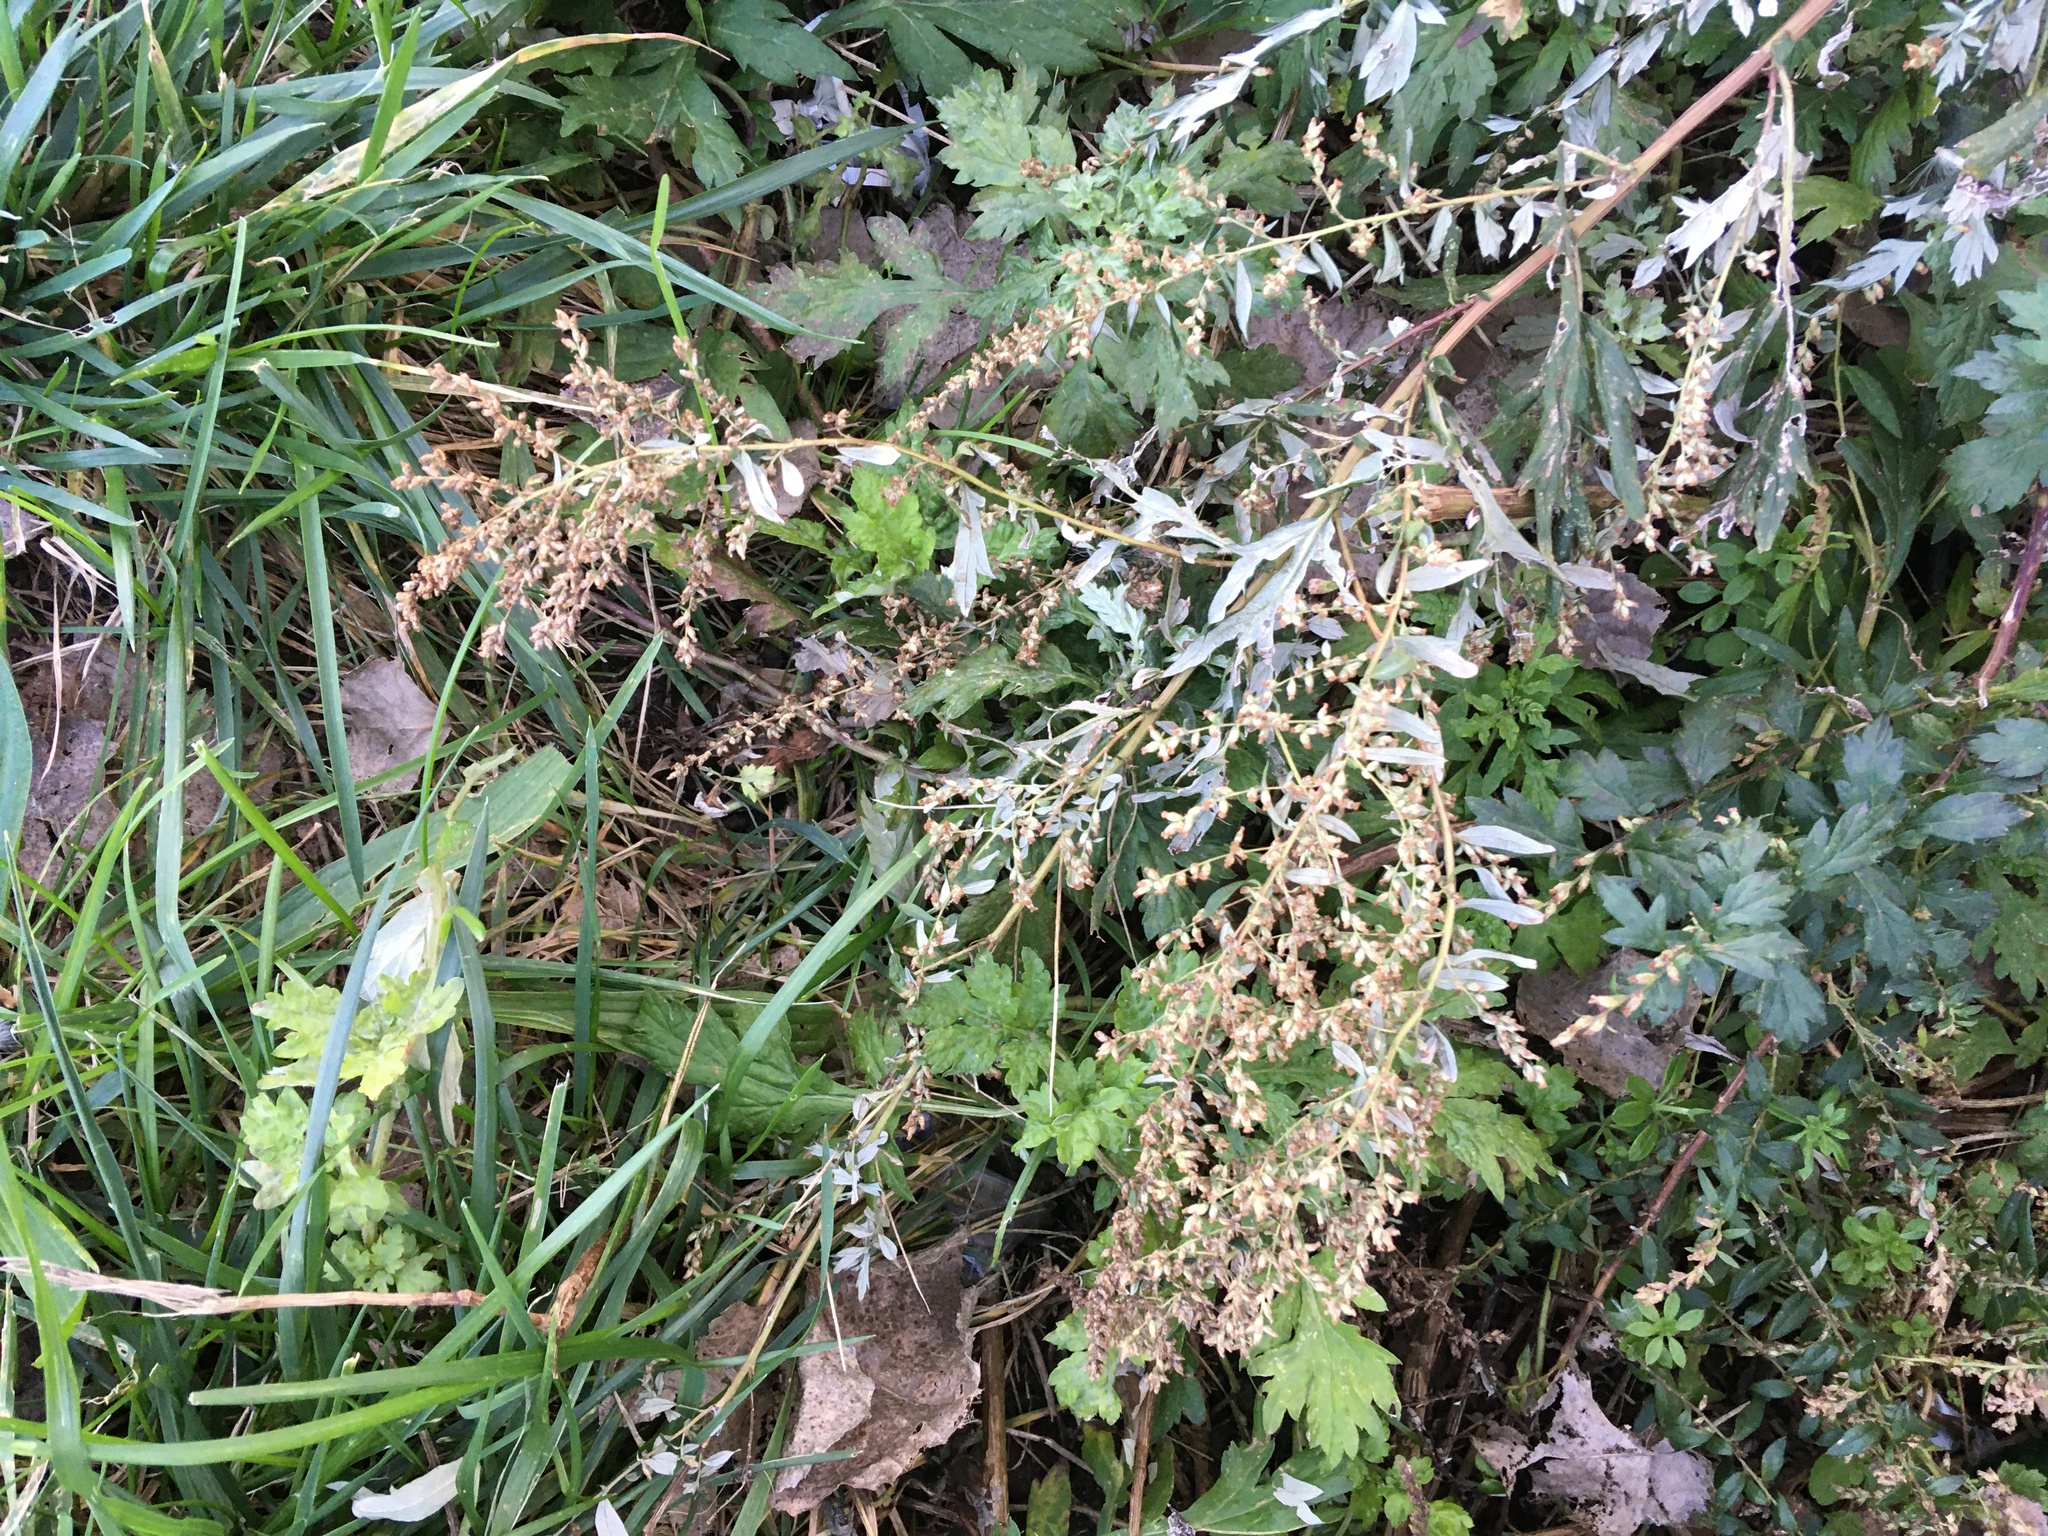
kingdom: Plantae
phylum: Tracheophyta
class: Magnoliopsida
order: Asterales
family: Asteraceae
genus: Artemisia
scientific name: Artemisia vulgaris
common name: Mugwort
